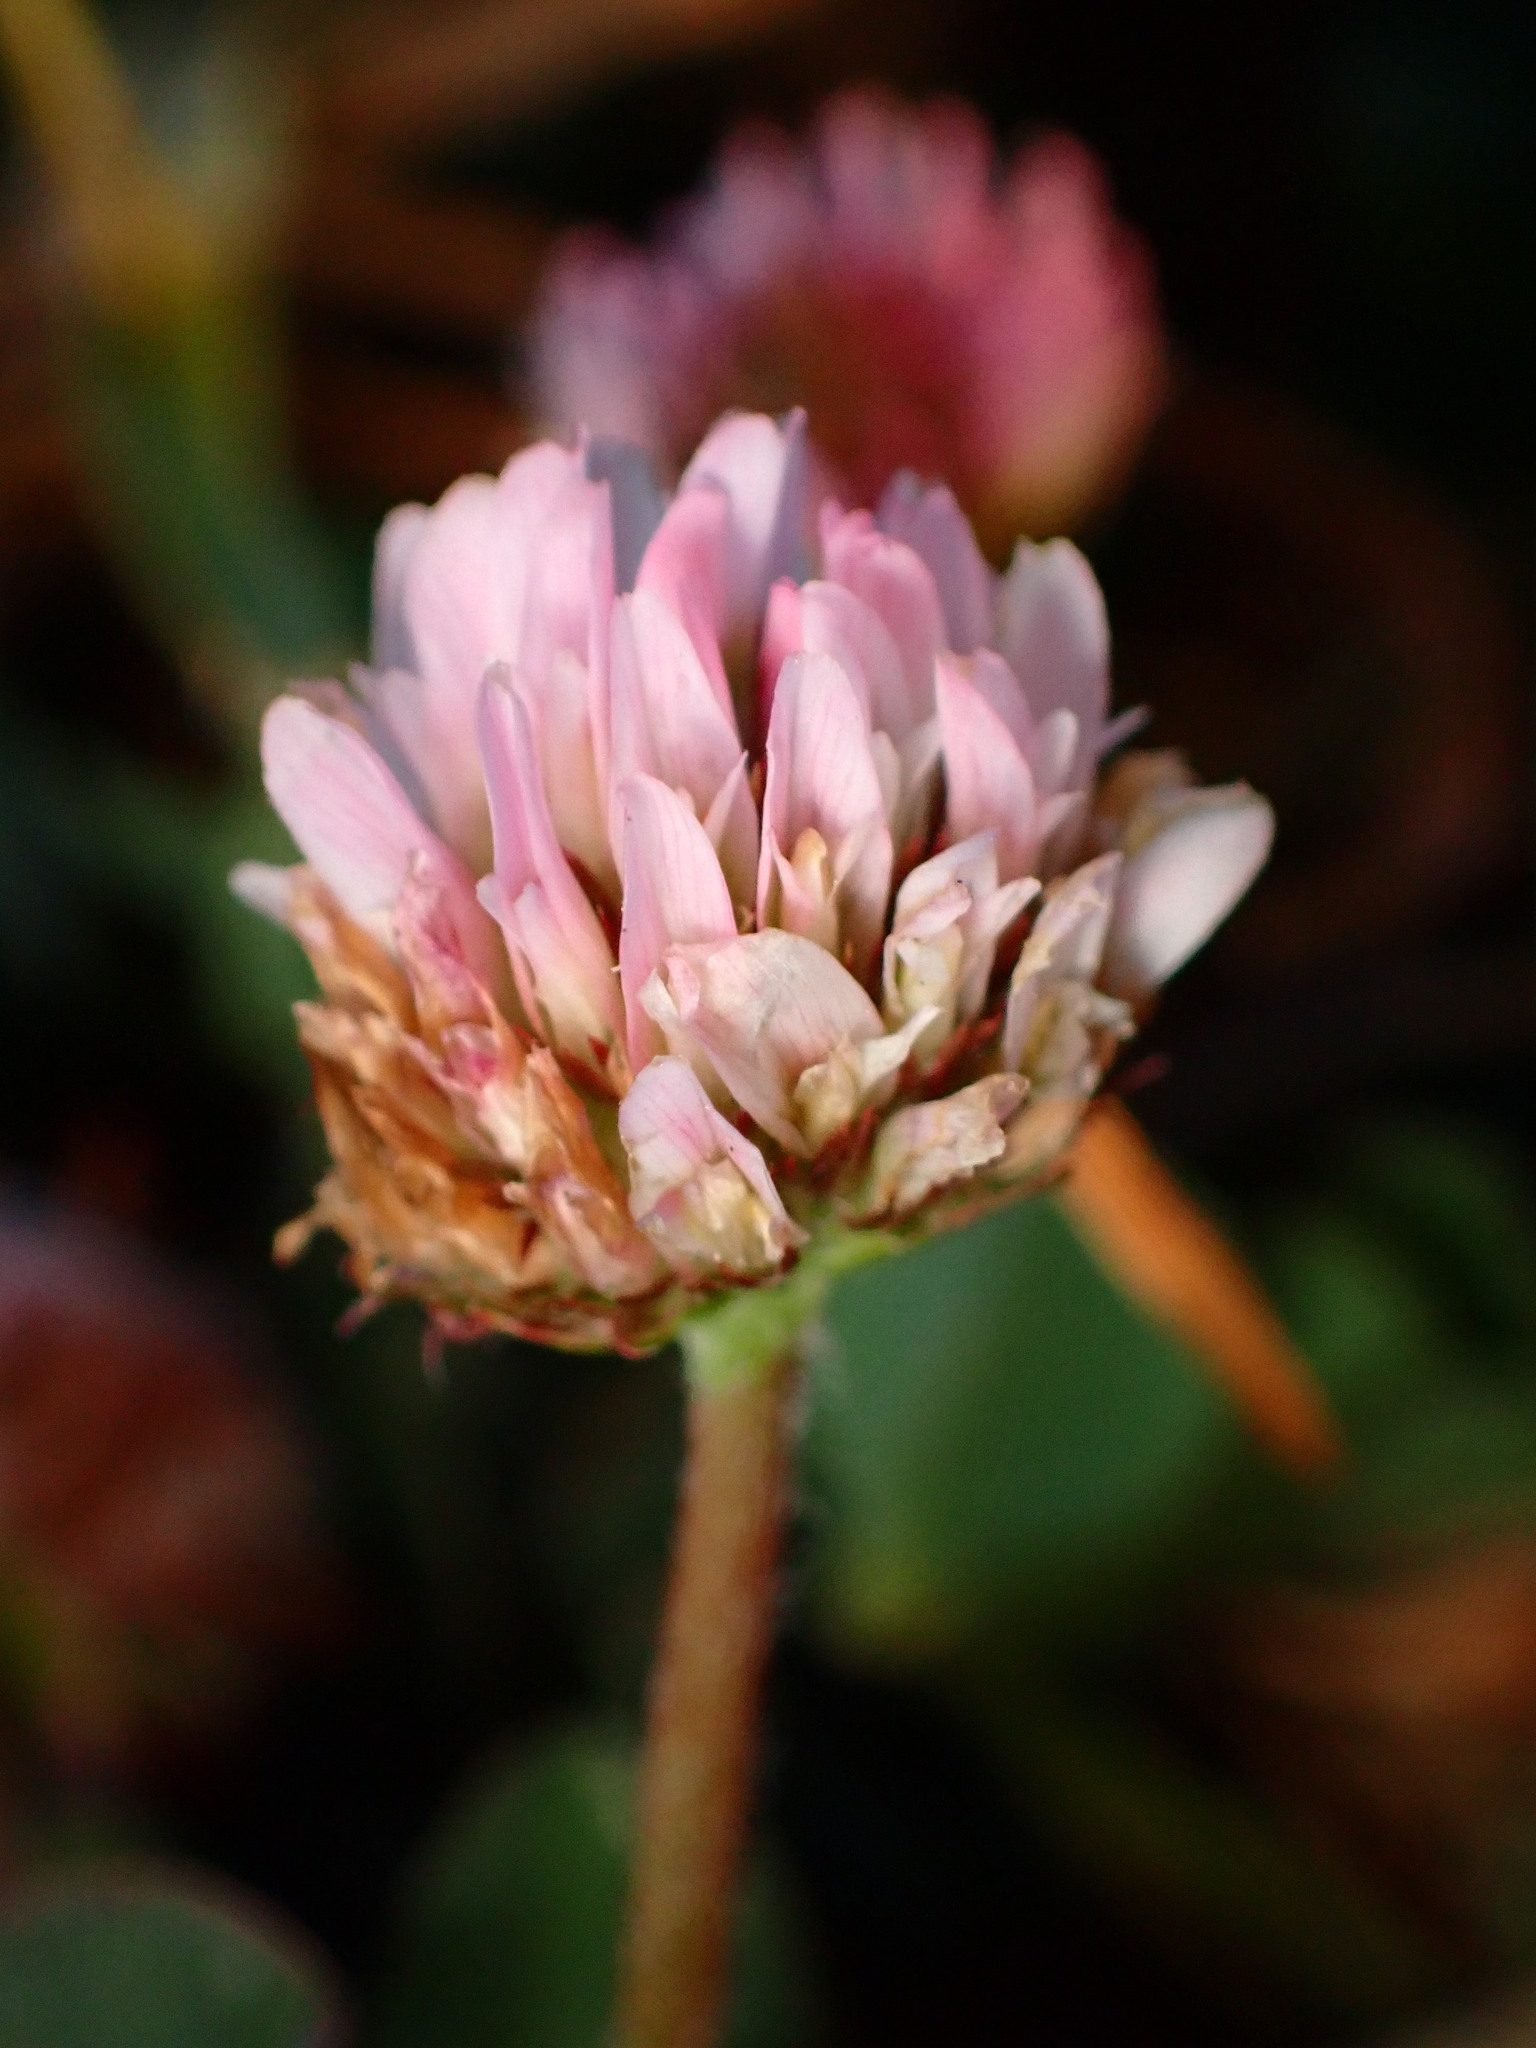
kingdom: Plantae
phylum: Tracheophyta
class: Magnoliopsida
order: Fabales
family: Fabaceae
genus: Trifolium
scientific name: Trifolium fragiferum
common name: Strawberry clover
